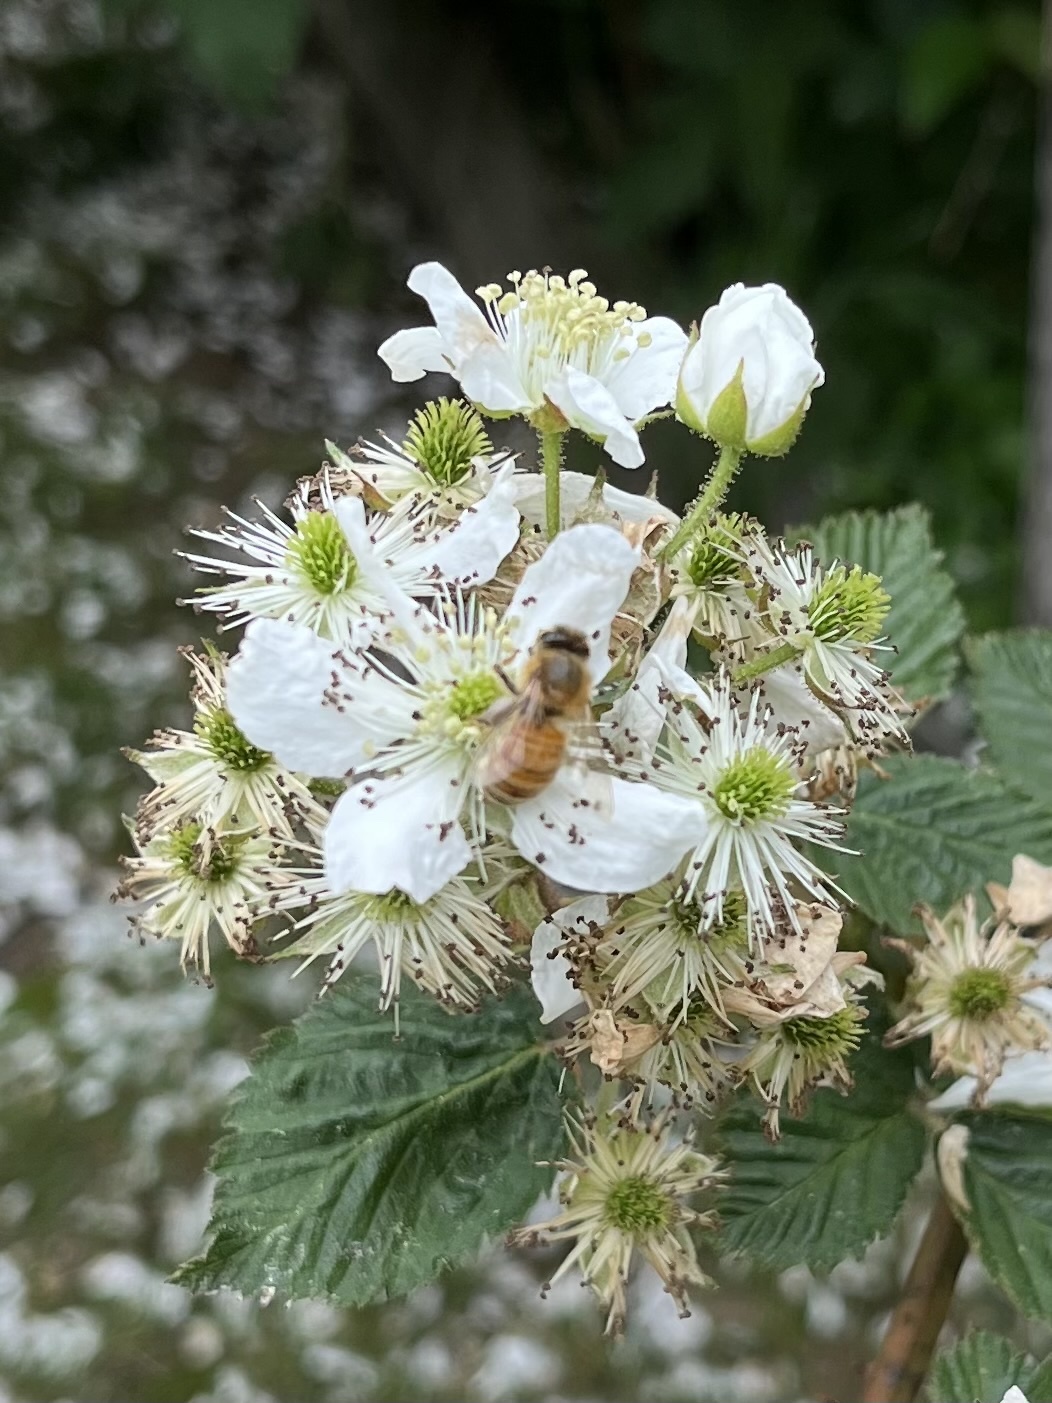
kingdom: Animalia
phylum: Arthropoda
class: Insecta
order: Hymenoptera
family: Apidae
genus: Apis
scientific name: Apis mellifera
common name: Honey bee
